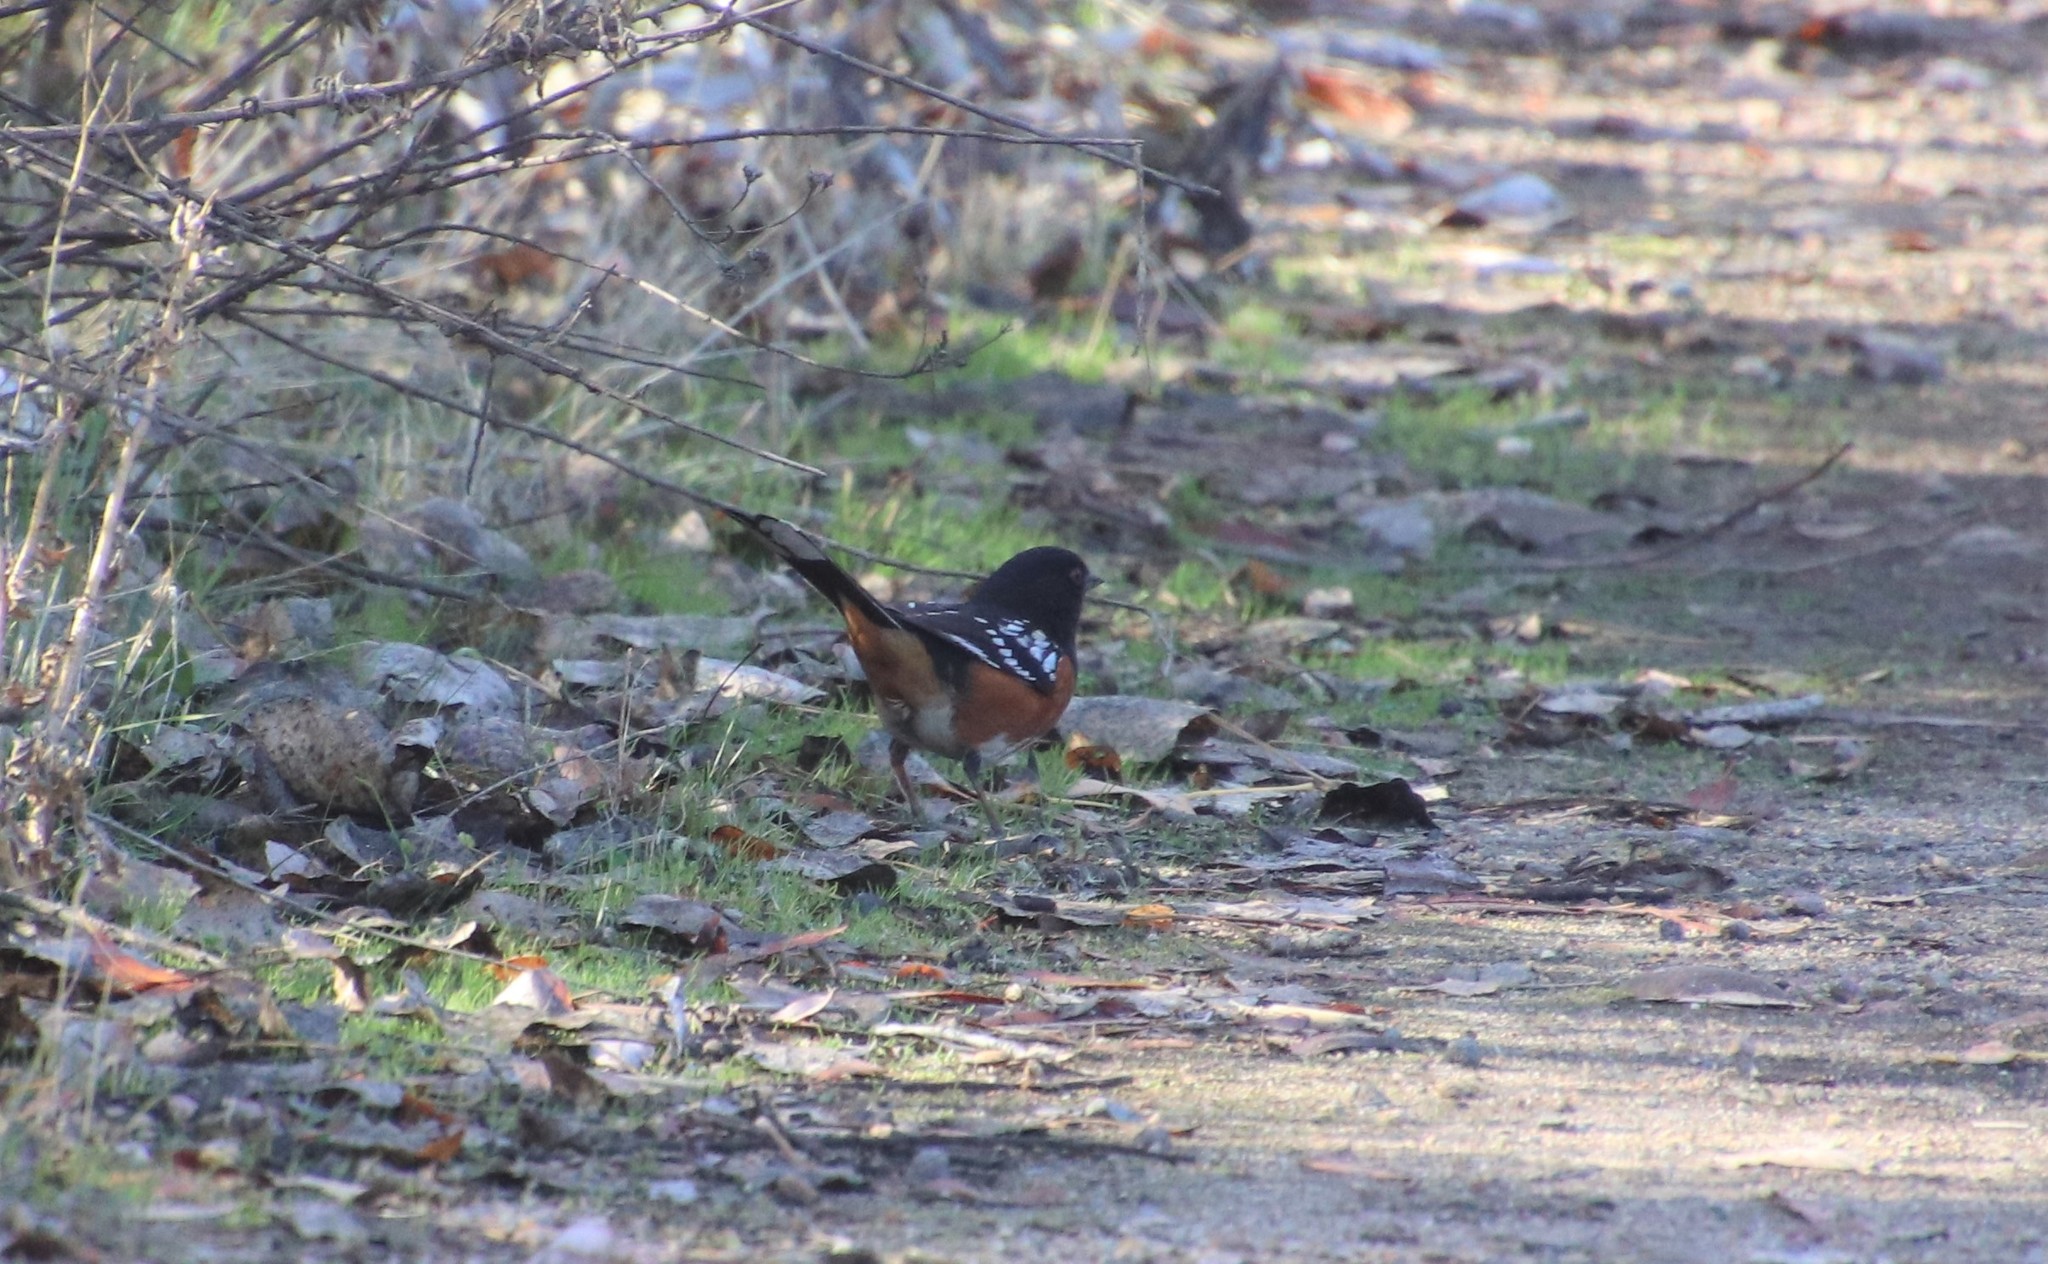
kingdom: Animalia
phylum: Chordata
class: Aves
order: Passeriformes
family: Passerellidae
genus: Pipilo
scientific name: Pipilo maculatus
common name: Spotted towhee
